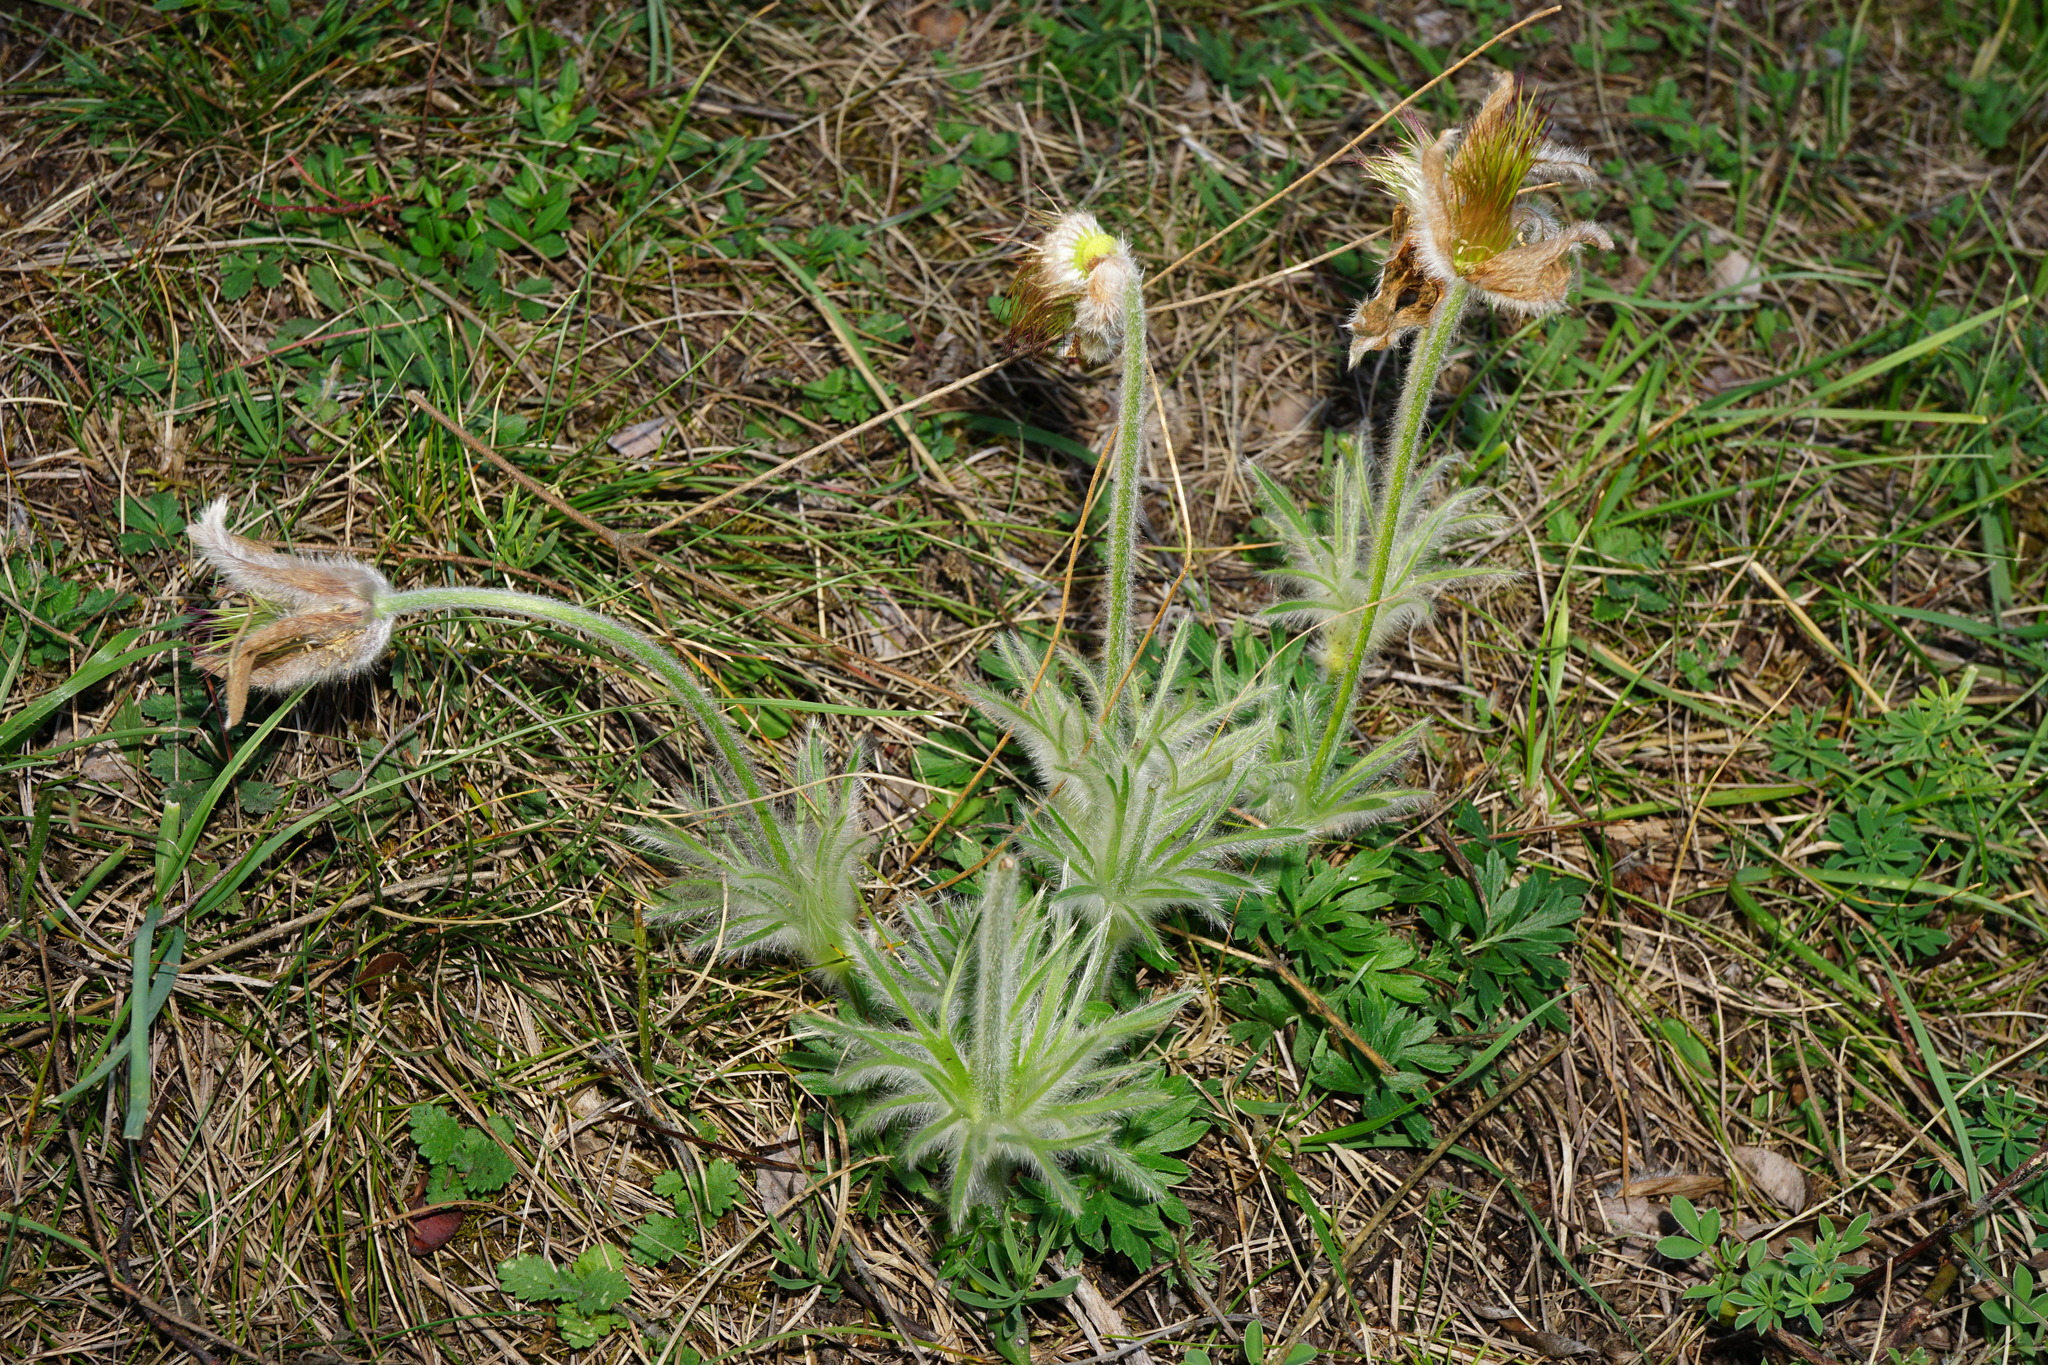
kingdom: Plantae
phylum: Tracheophyta
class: Magnoliopsida
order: Ranunculales
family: Ranunculaceae
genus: Pulsatilla
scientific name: Pulsatilla grandis
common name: Greater pasque flower
